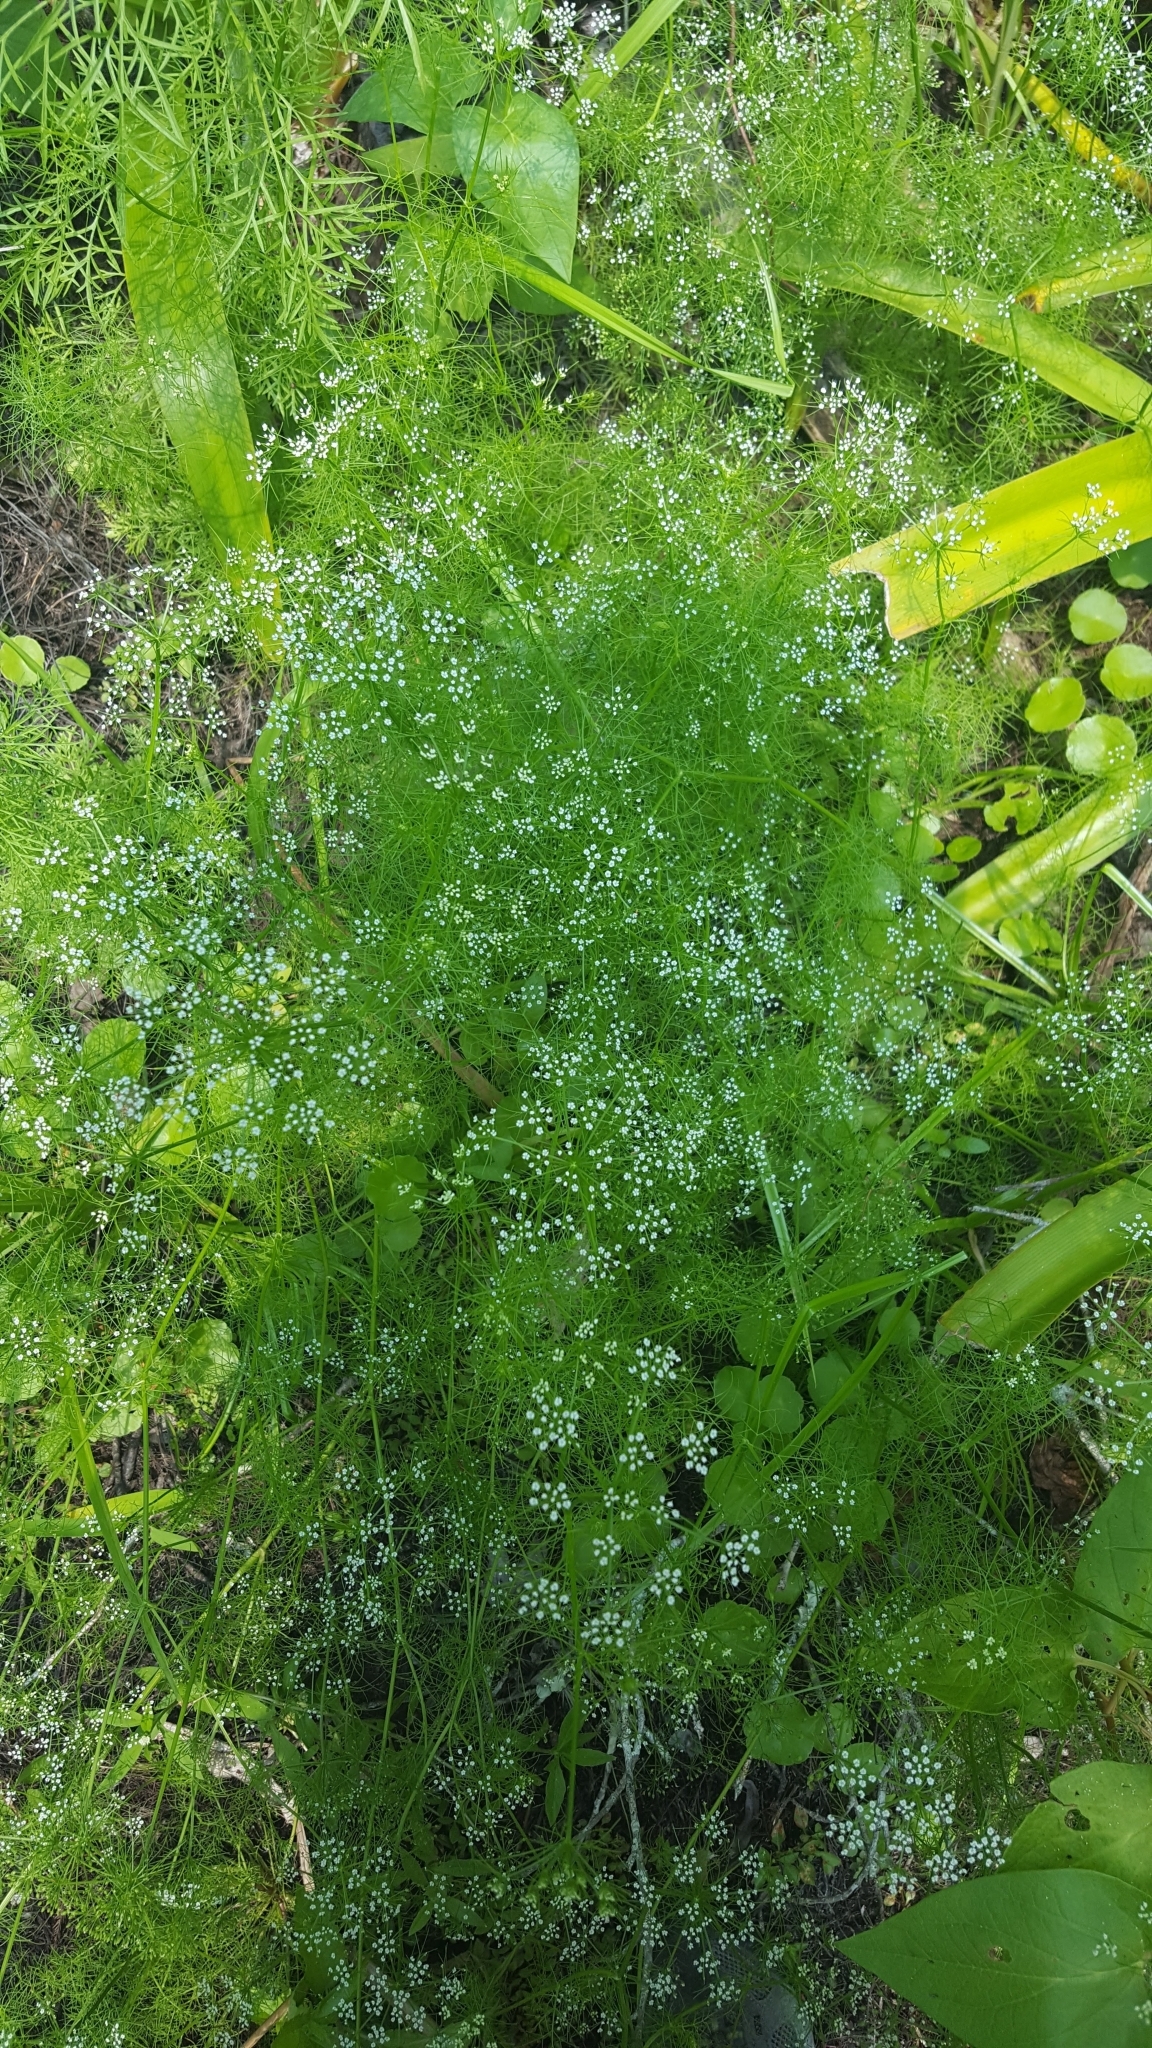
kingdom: Plantae
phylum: Tracheophyta
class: Magnoliopsida
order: Apiales
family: Apiaceae
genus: Ptilimnium
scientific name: Ptilimnium capillaceum
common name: Herbwilliam
